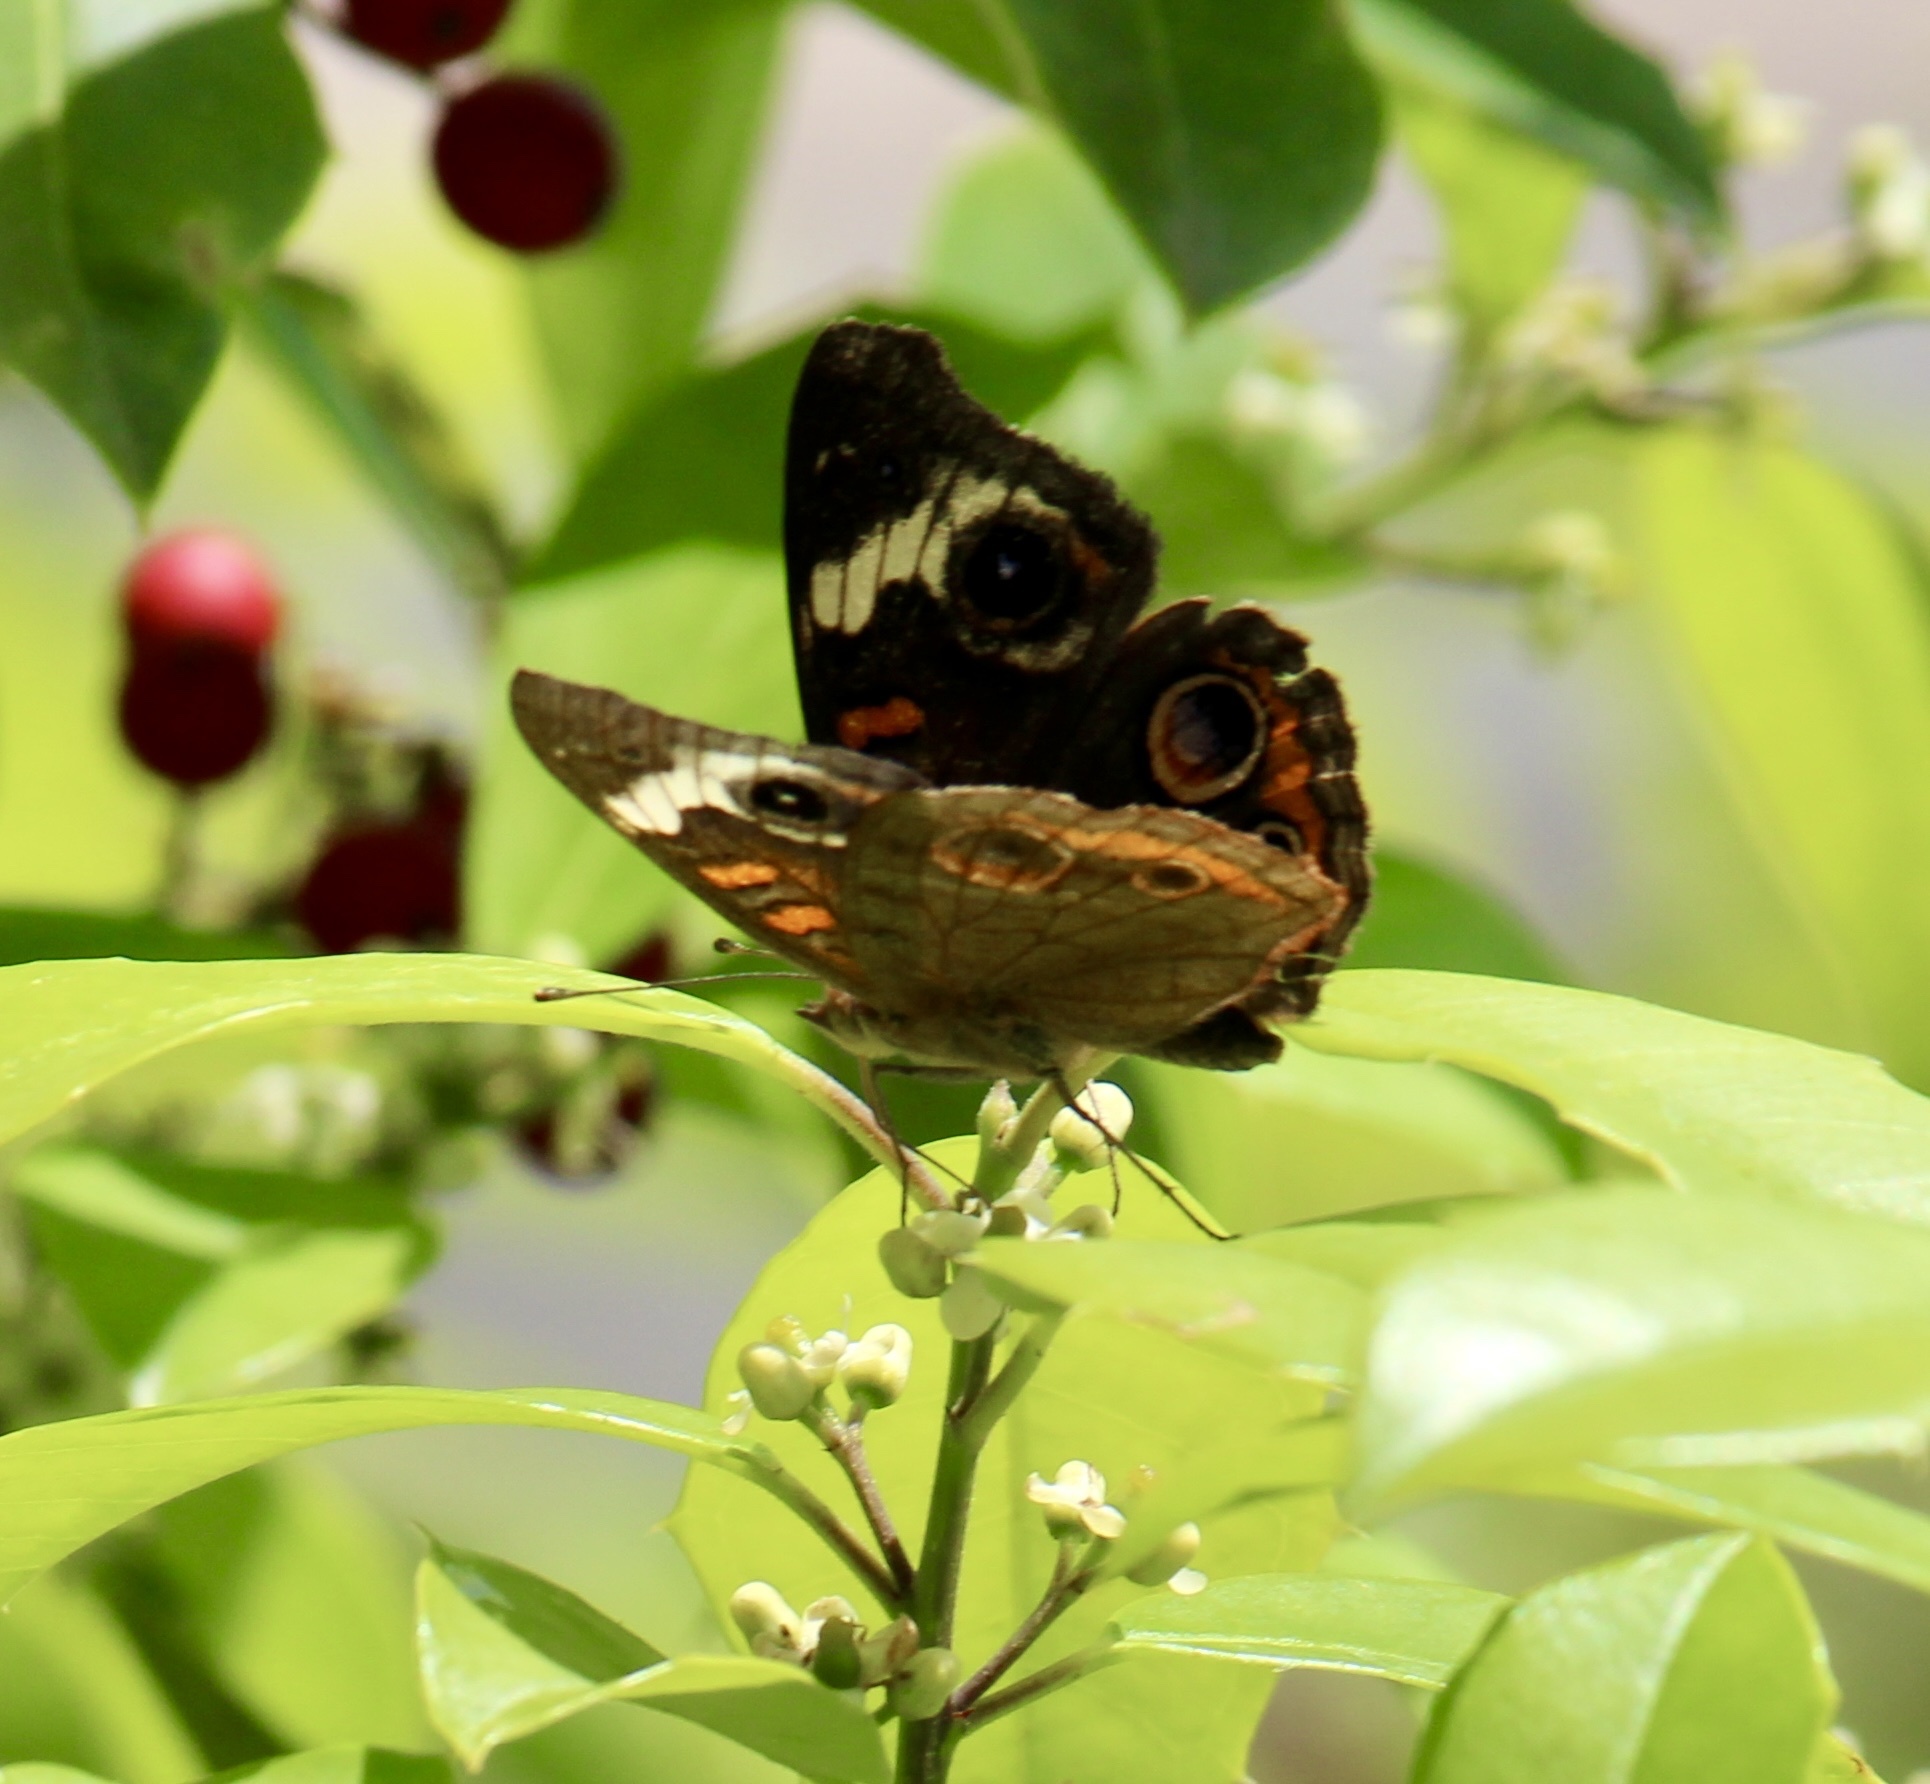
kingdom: Animalia
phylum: Arthropoda
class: Insecta
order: Lepidoptera
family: Nymphalidae
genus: Junonia
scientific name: Junonia coenia
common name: Common buckeye
